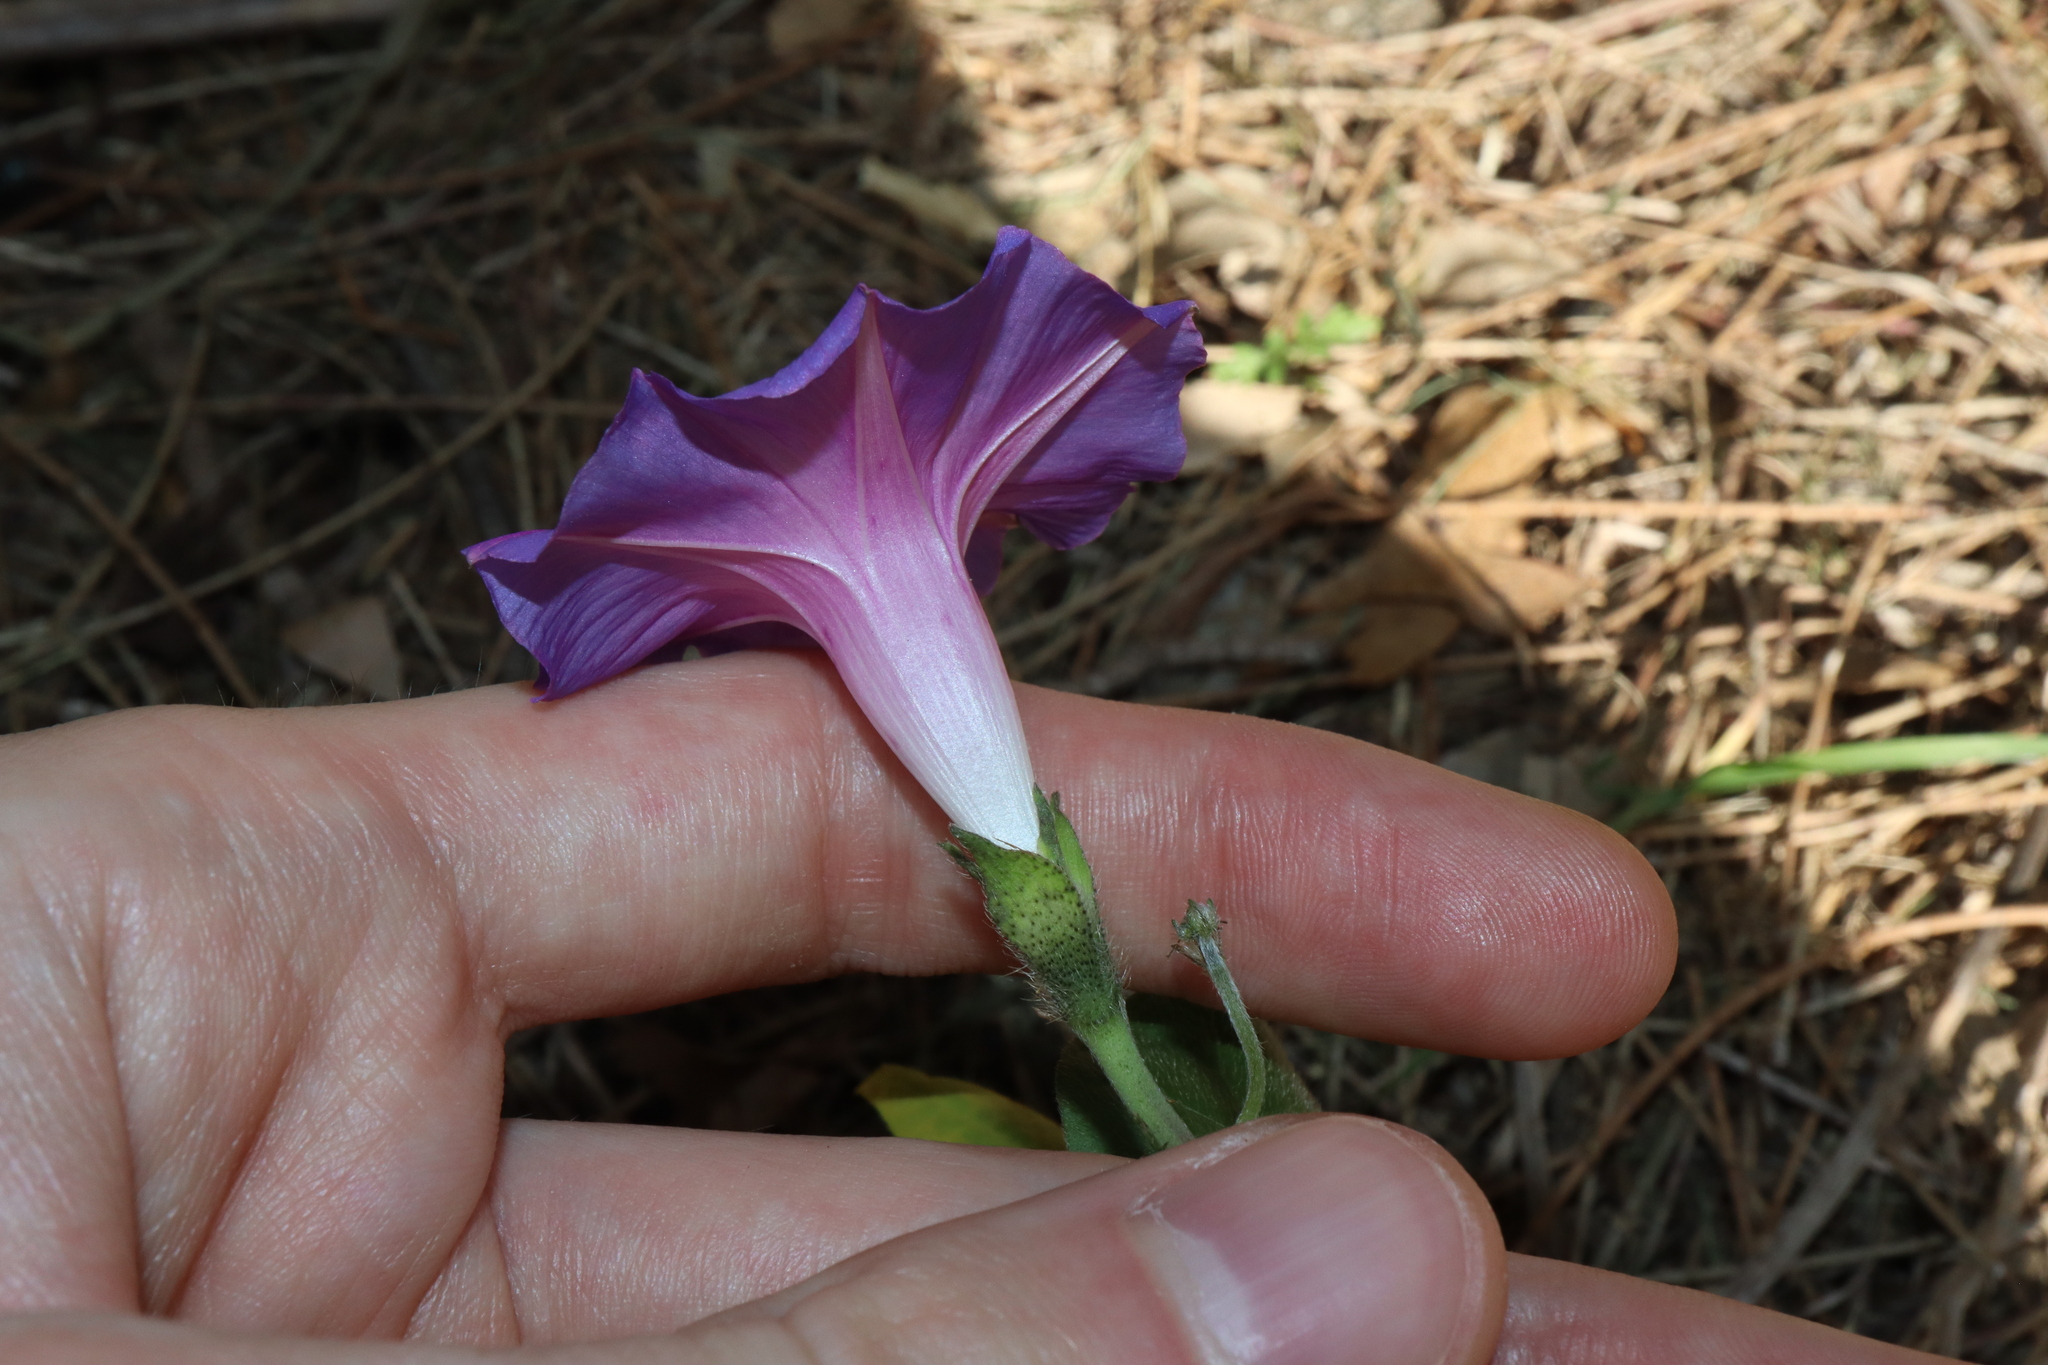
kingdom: Plantae
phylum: Tracheophyta
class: Magnoliopsida
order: Solanales
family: Convolvulaceae
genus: Ipomoea
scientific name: Ipomoea purpurea
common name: Common morning-glory
